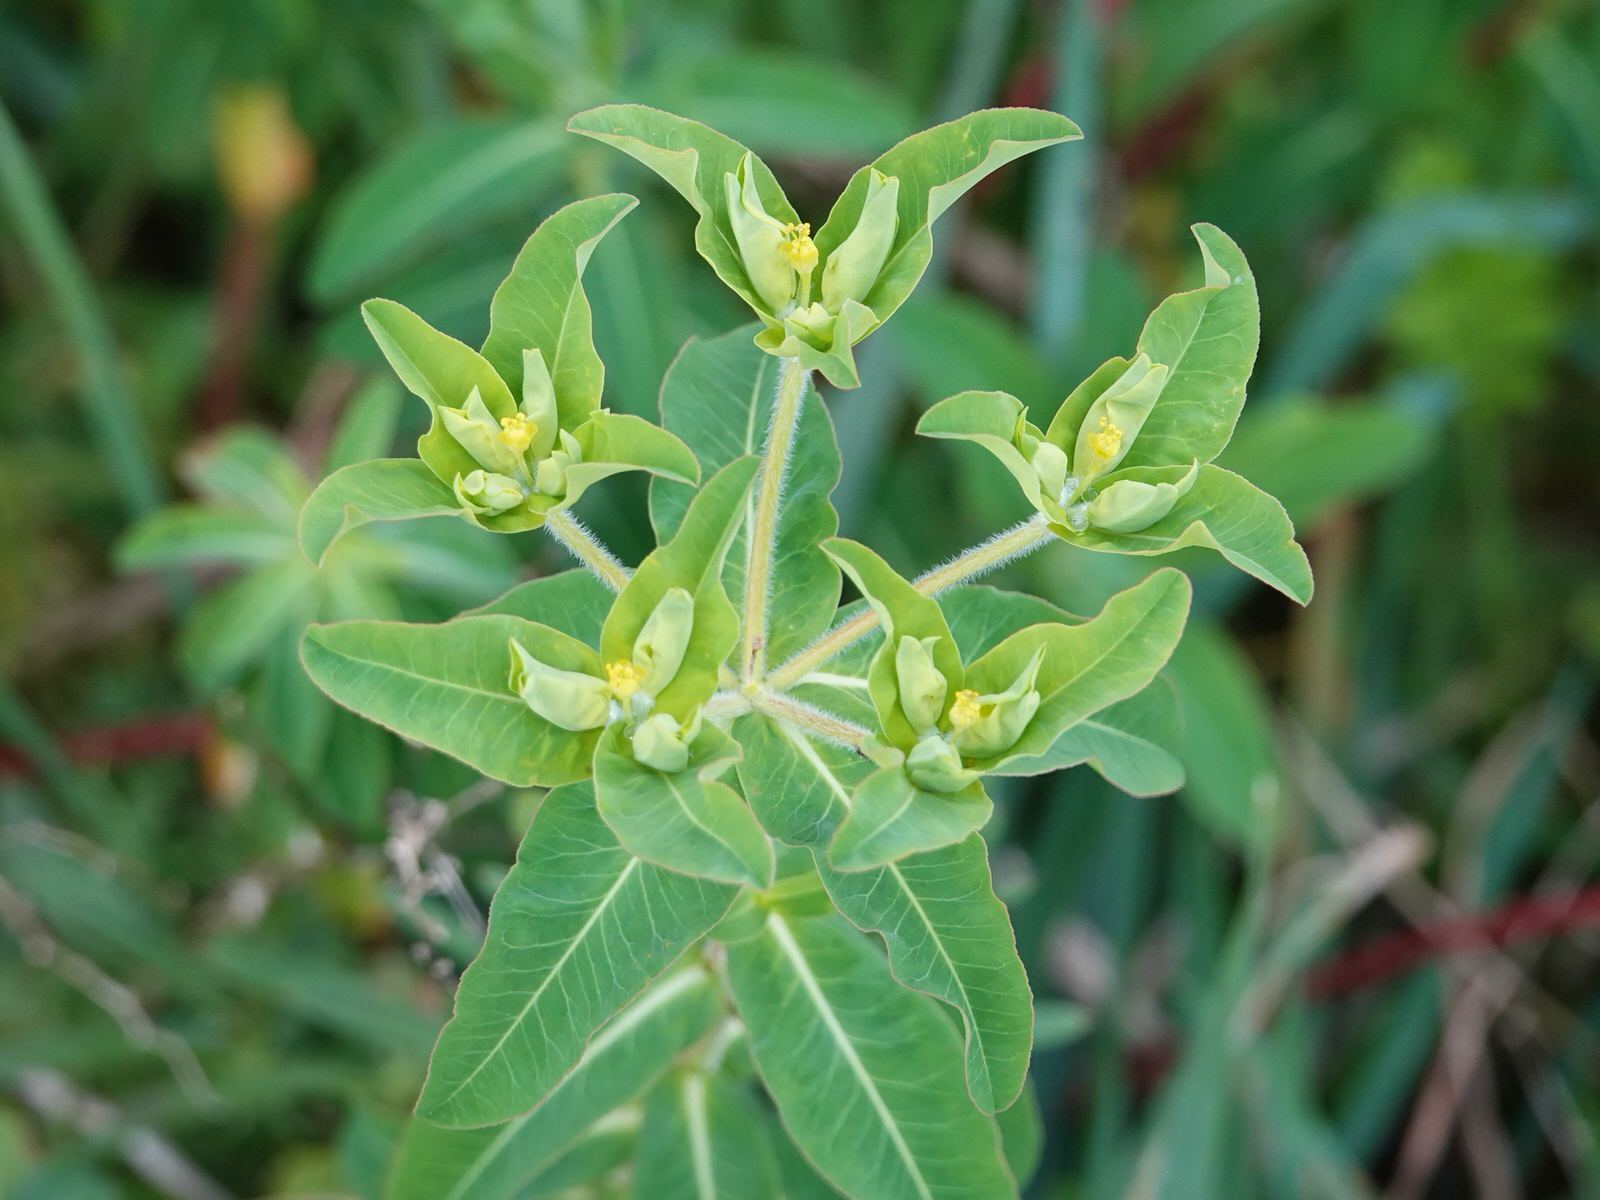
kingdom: Plantae
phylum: Tracheophyta
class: Magnoliopsida
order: Malpighiales
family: Euphorbiaceae
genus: Euphorbia
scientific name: Euphorbia oblongata
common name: Balkan spurge
